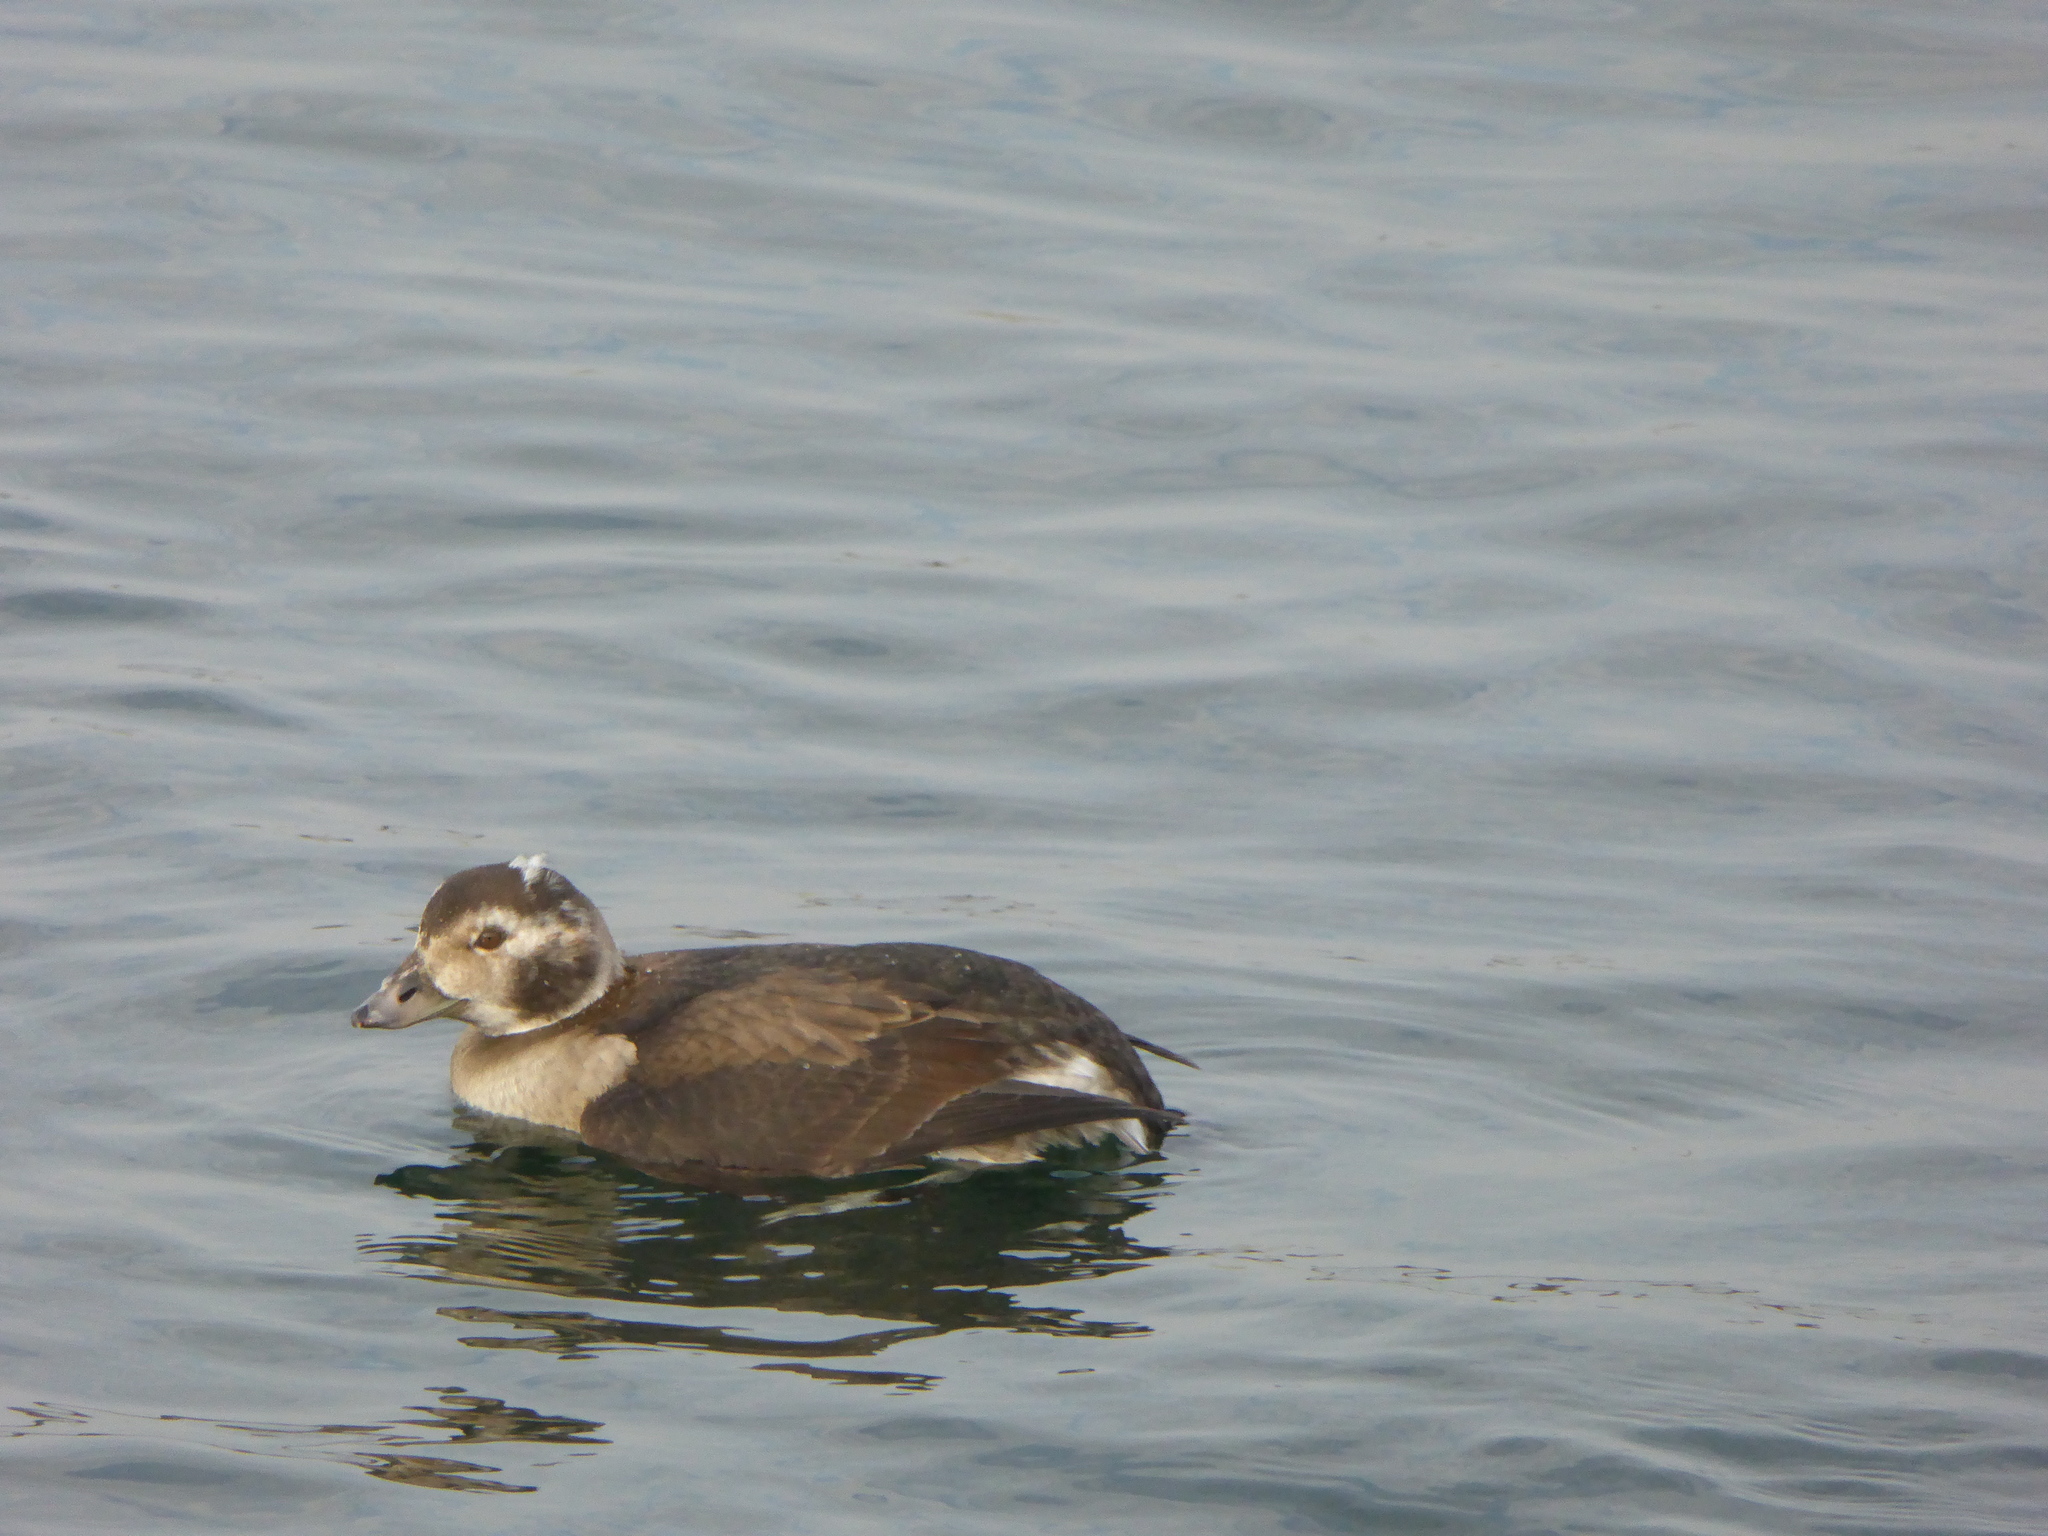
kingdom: Animalia
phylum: Chordata
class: Aves
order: Anseriformes
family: Anatidae
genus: Clangula
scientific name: Clangula hyemalis
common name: Long-tailed duck
